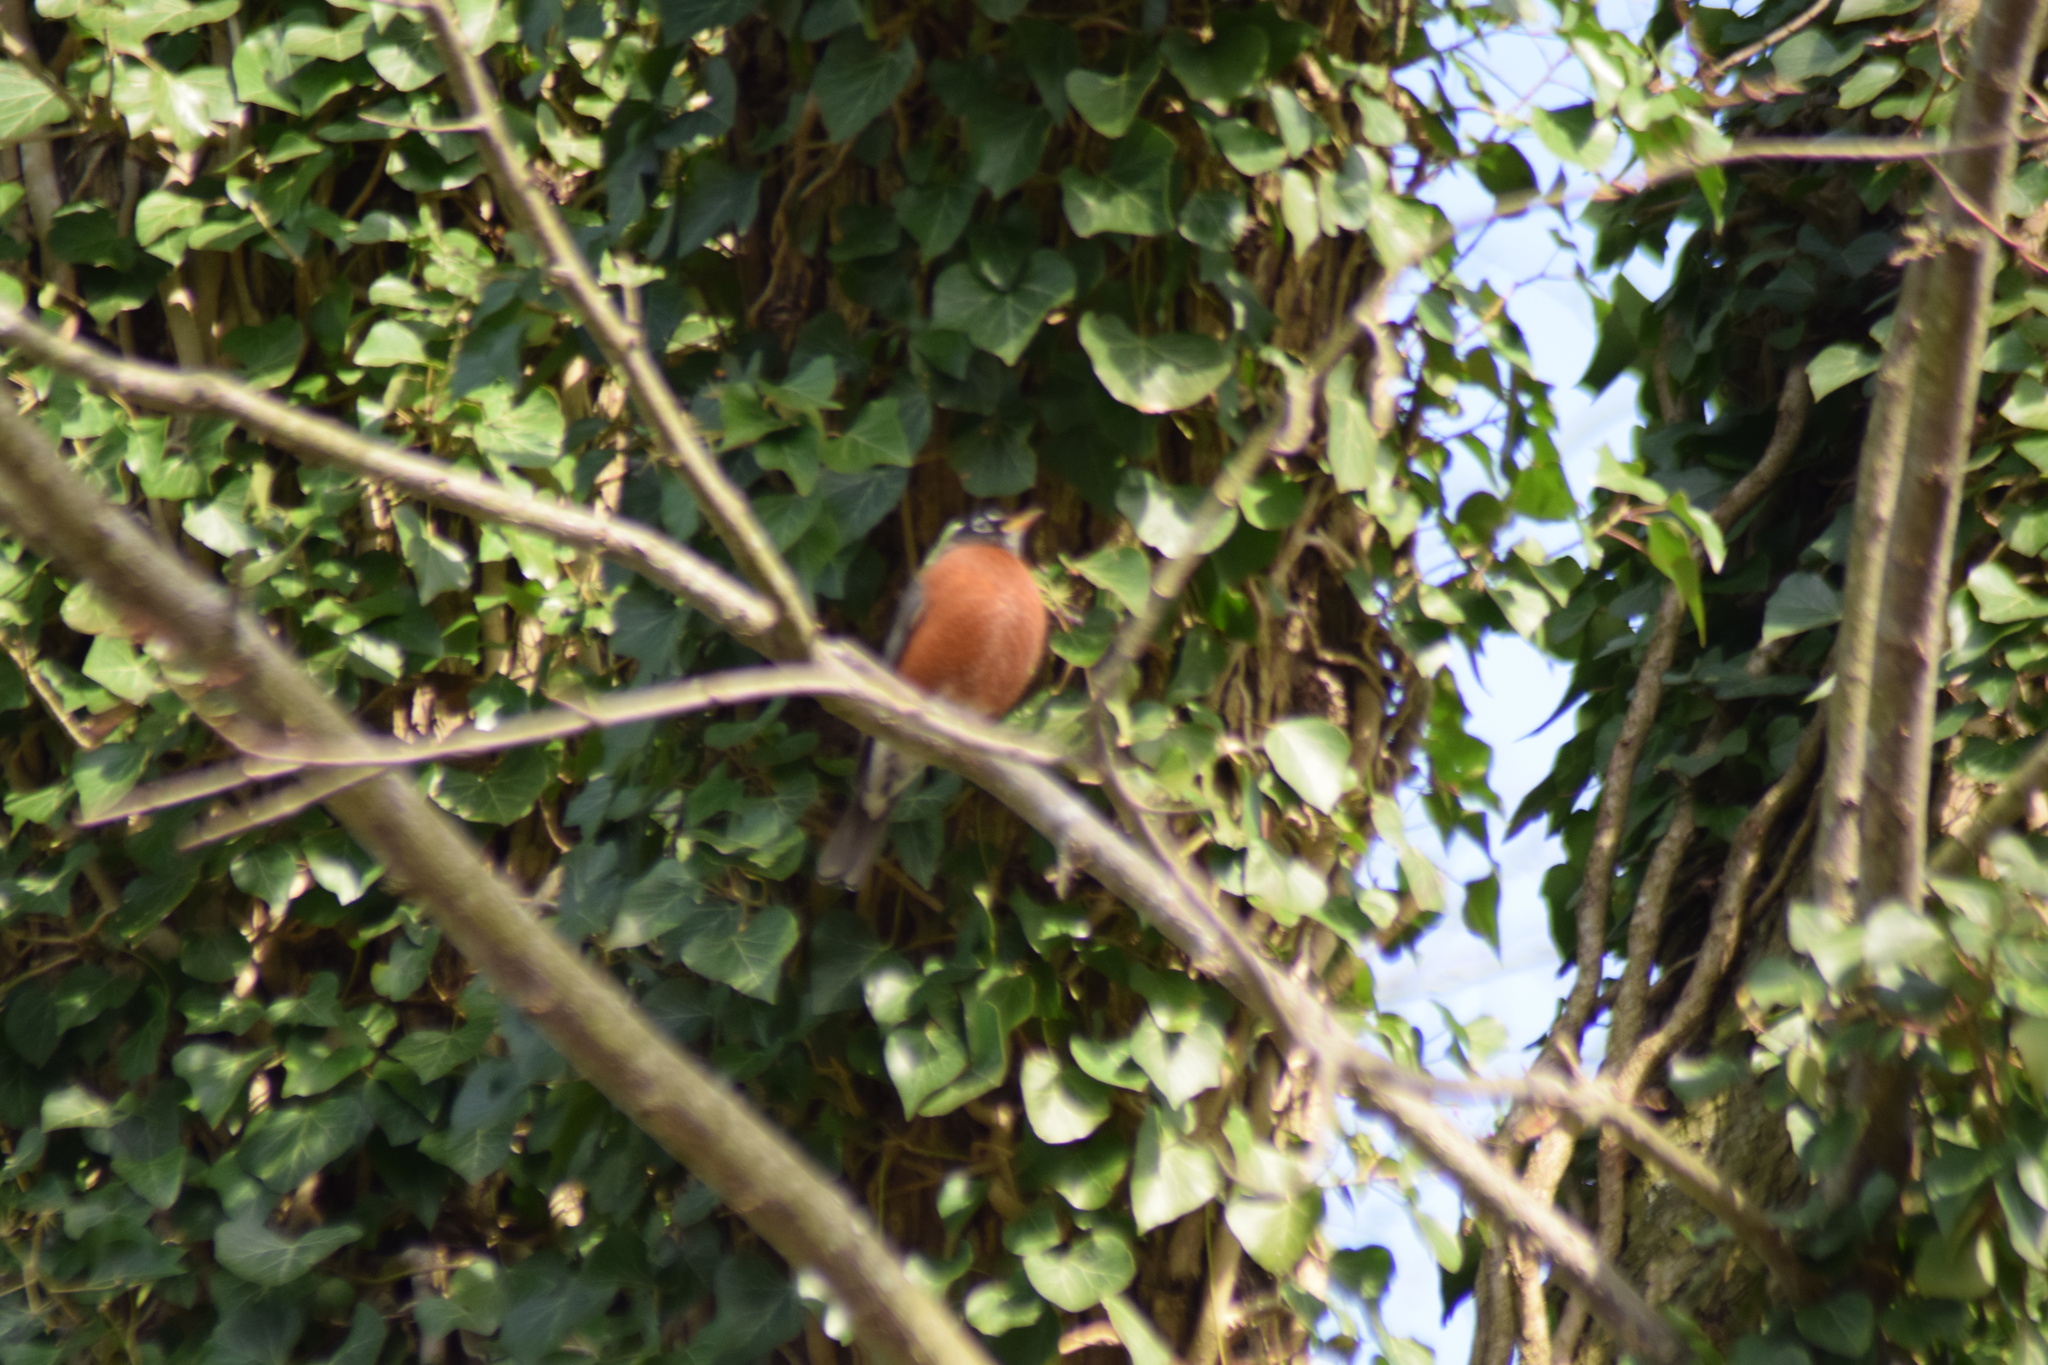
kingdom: Animalia
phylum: Chordata
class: Aves
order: Passeriformes
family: Turdidae
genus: Turdus
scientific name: Turdus migratorius
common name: American robin
